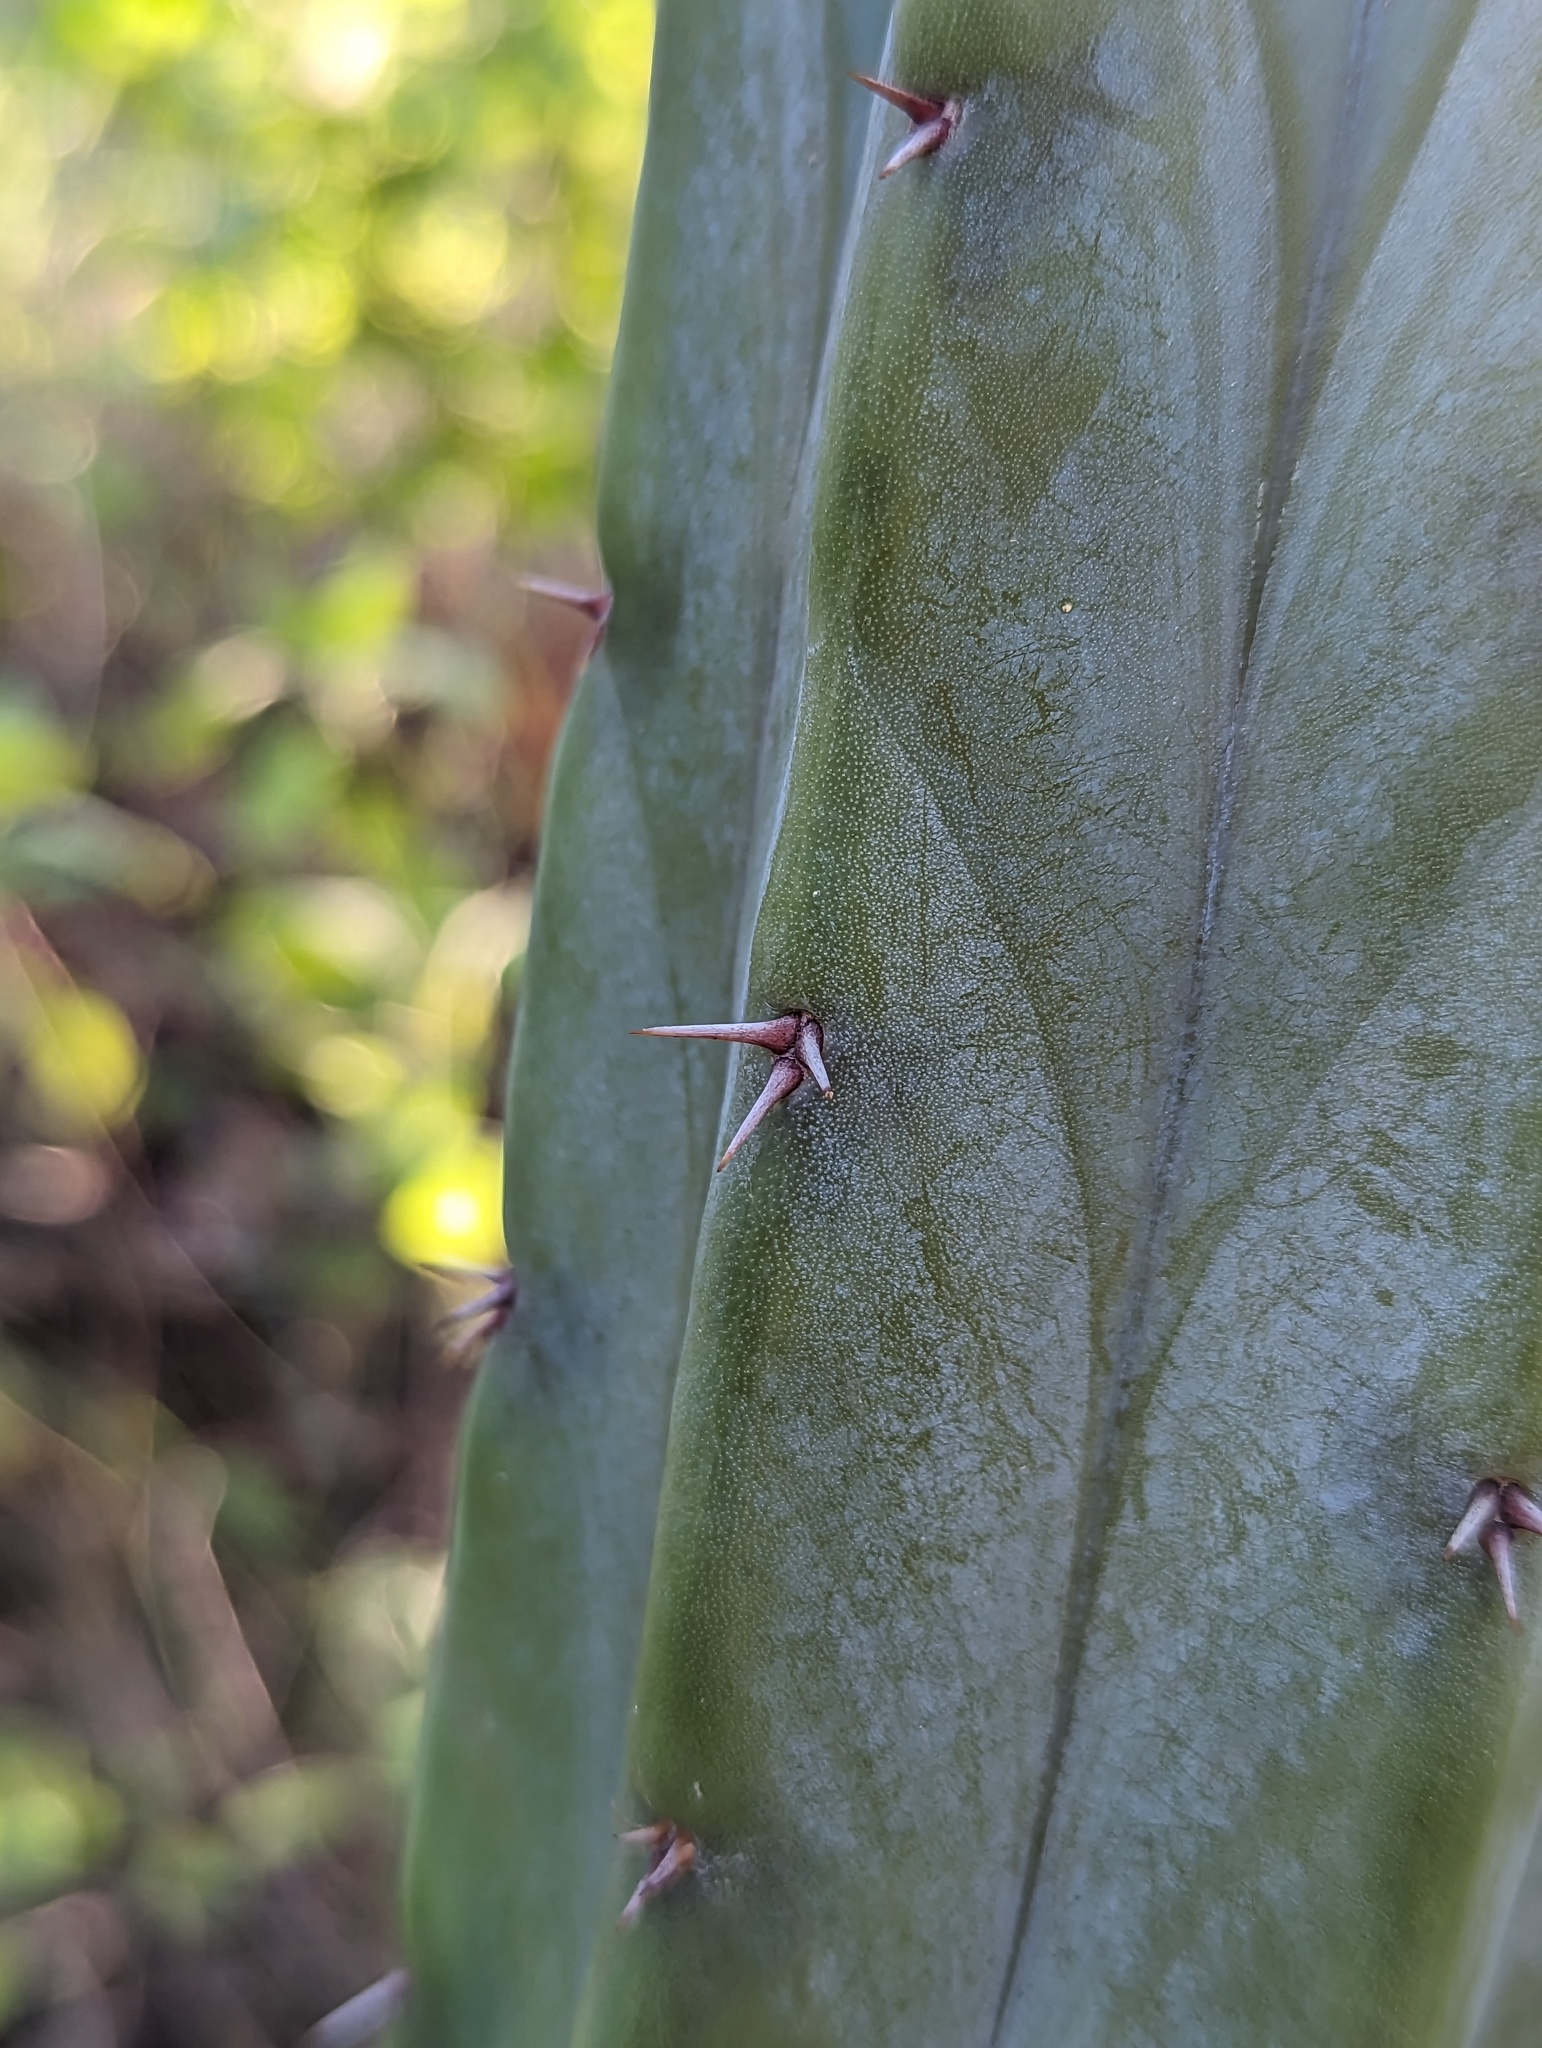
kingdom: Plantae
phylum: Tracheophyta
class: Magnoliopsida
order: Caryophyllales
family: Cactaceae
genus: Myrtillocactus
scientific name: Myrtillocactus cochal
